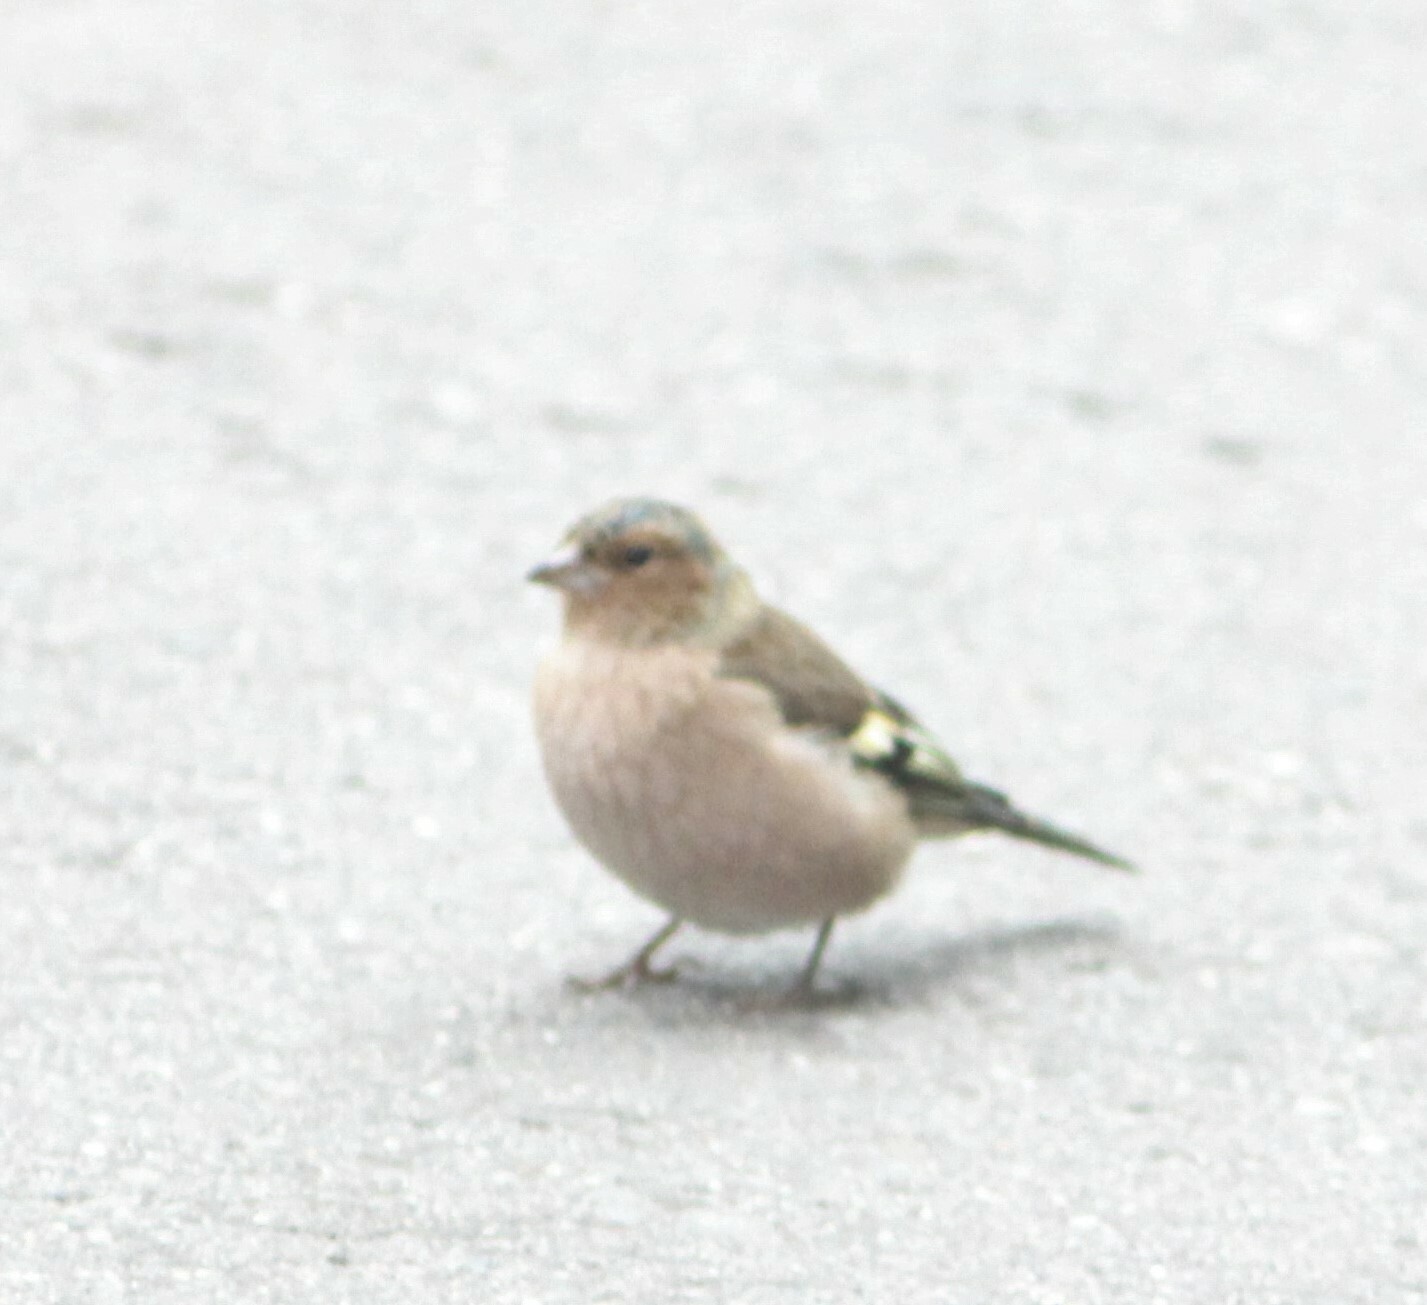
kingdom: Animalia
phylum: Chordata
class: Aves
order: Passeriformes
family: Fringillidae
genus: Fringilla
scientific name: Fringilla coelebs
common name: Common chaffinch
